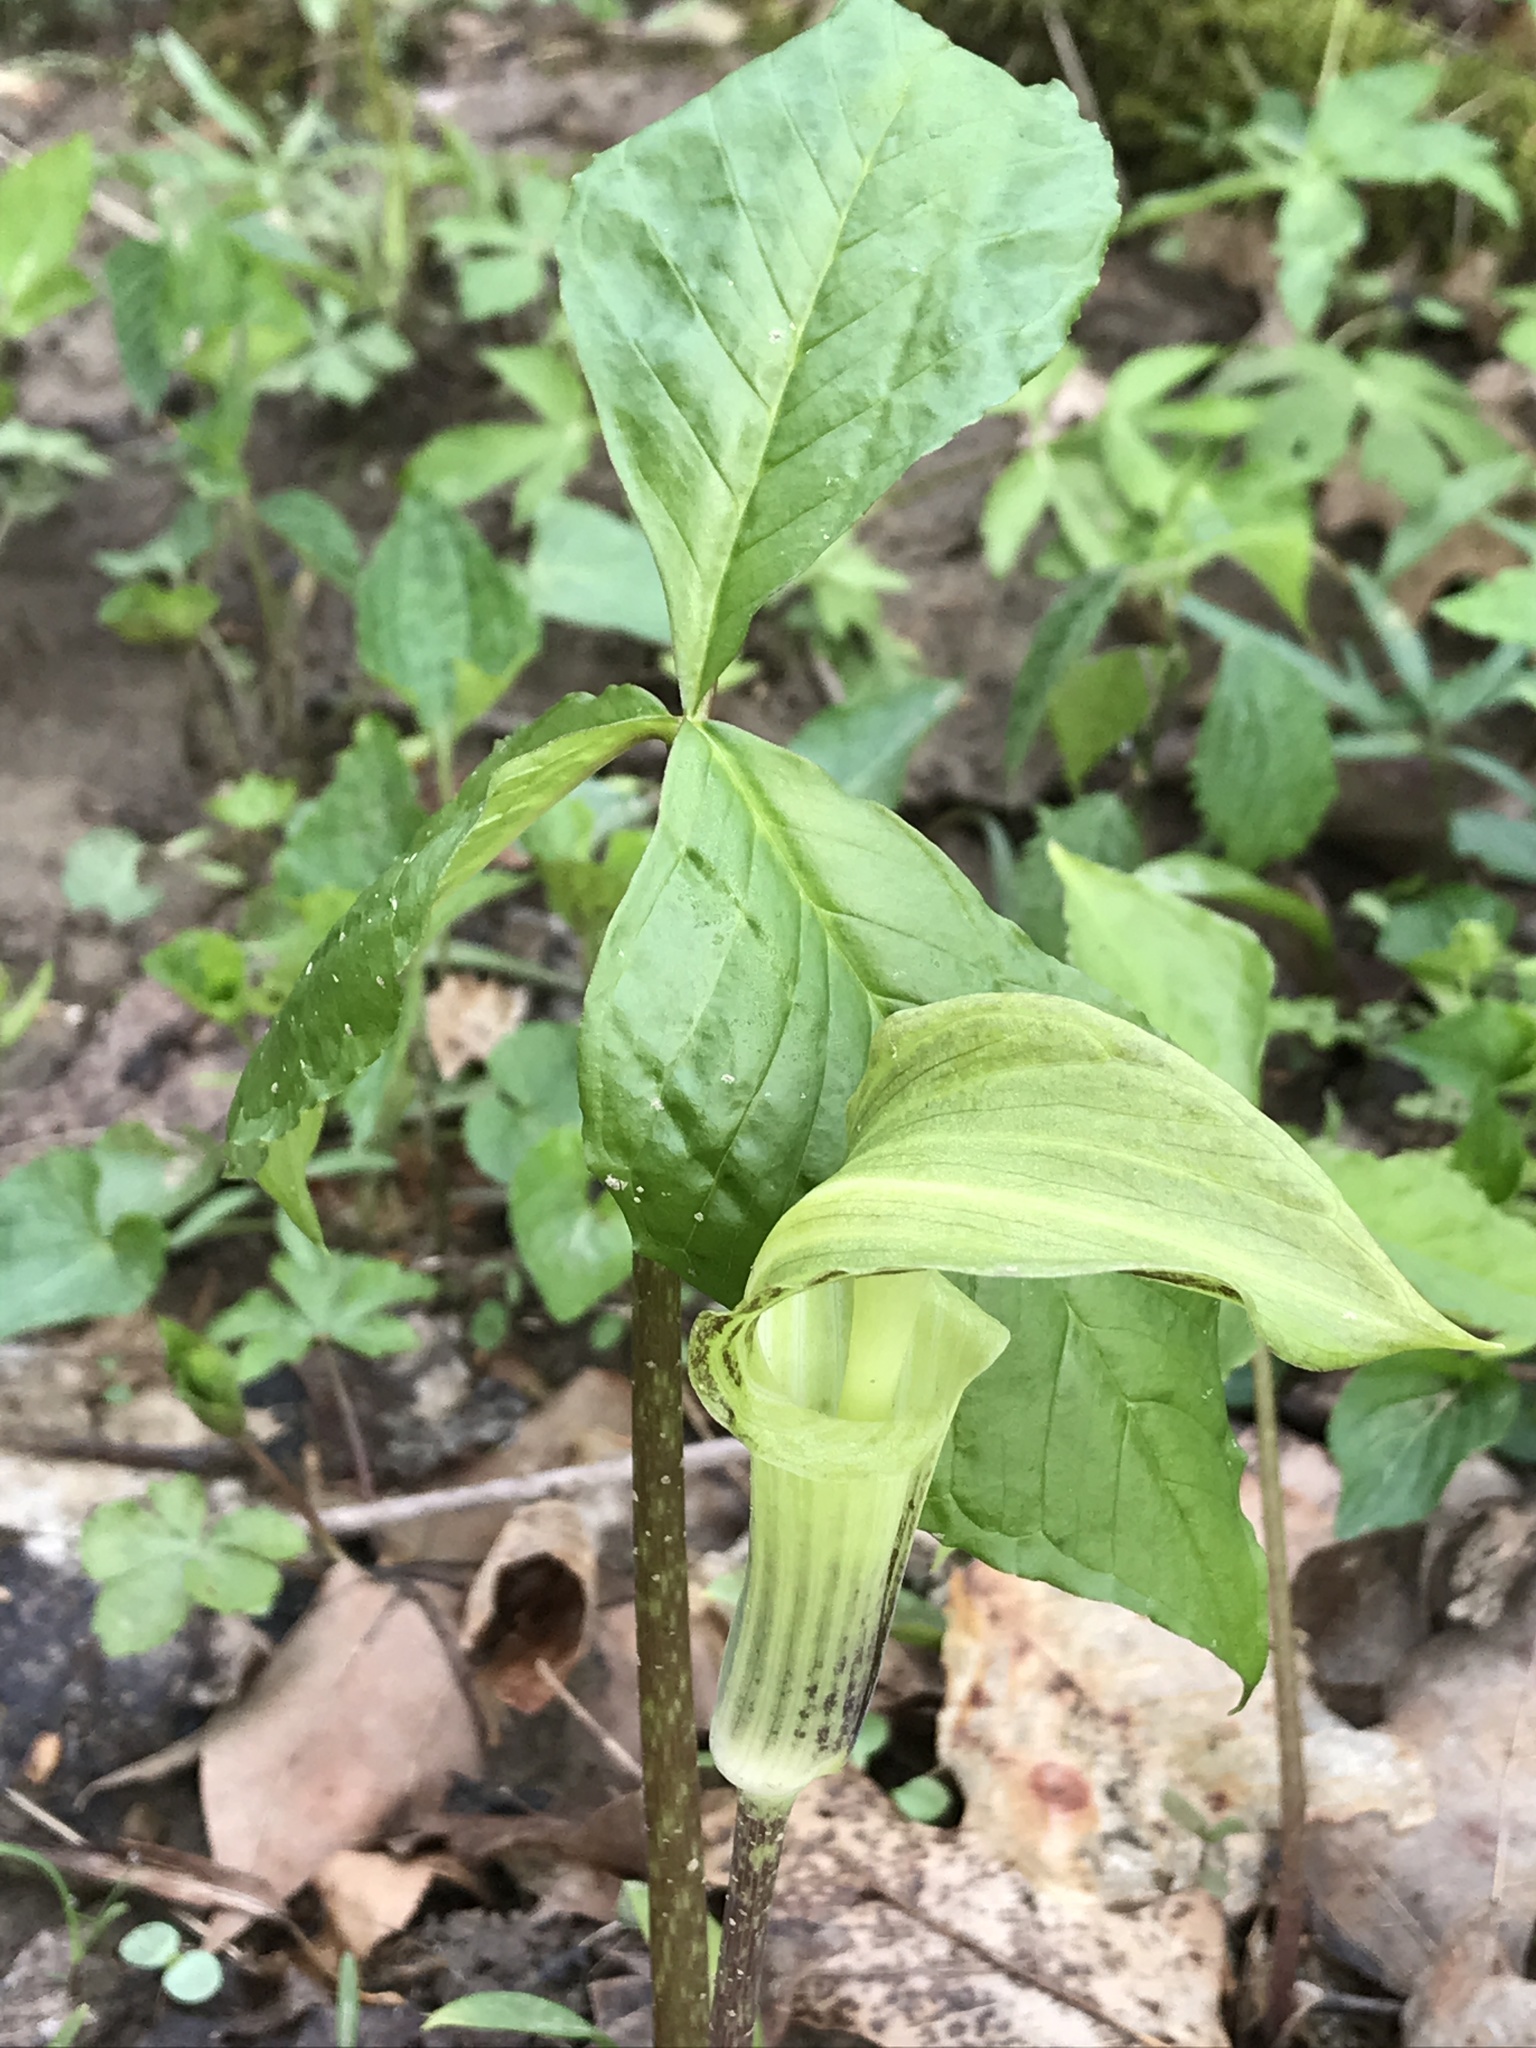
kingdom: Plantae
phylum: Tracheophyta
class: Liliopsida
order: Alismatales
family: Araceae
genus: Arisaema
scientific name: Arisaema triphyllum
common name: Jack-in-the-pulpit
